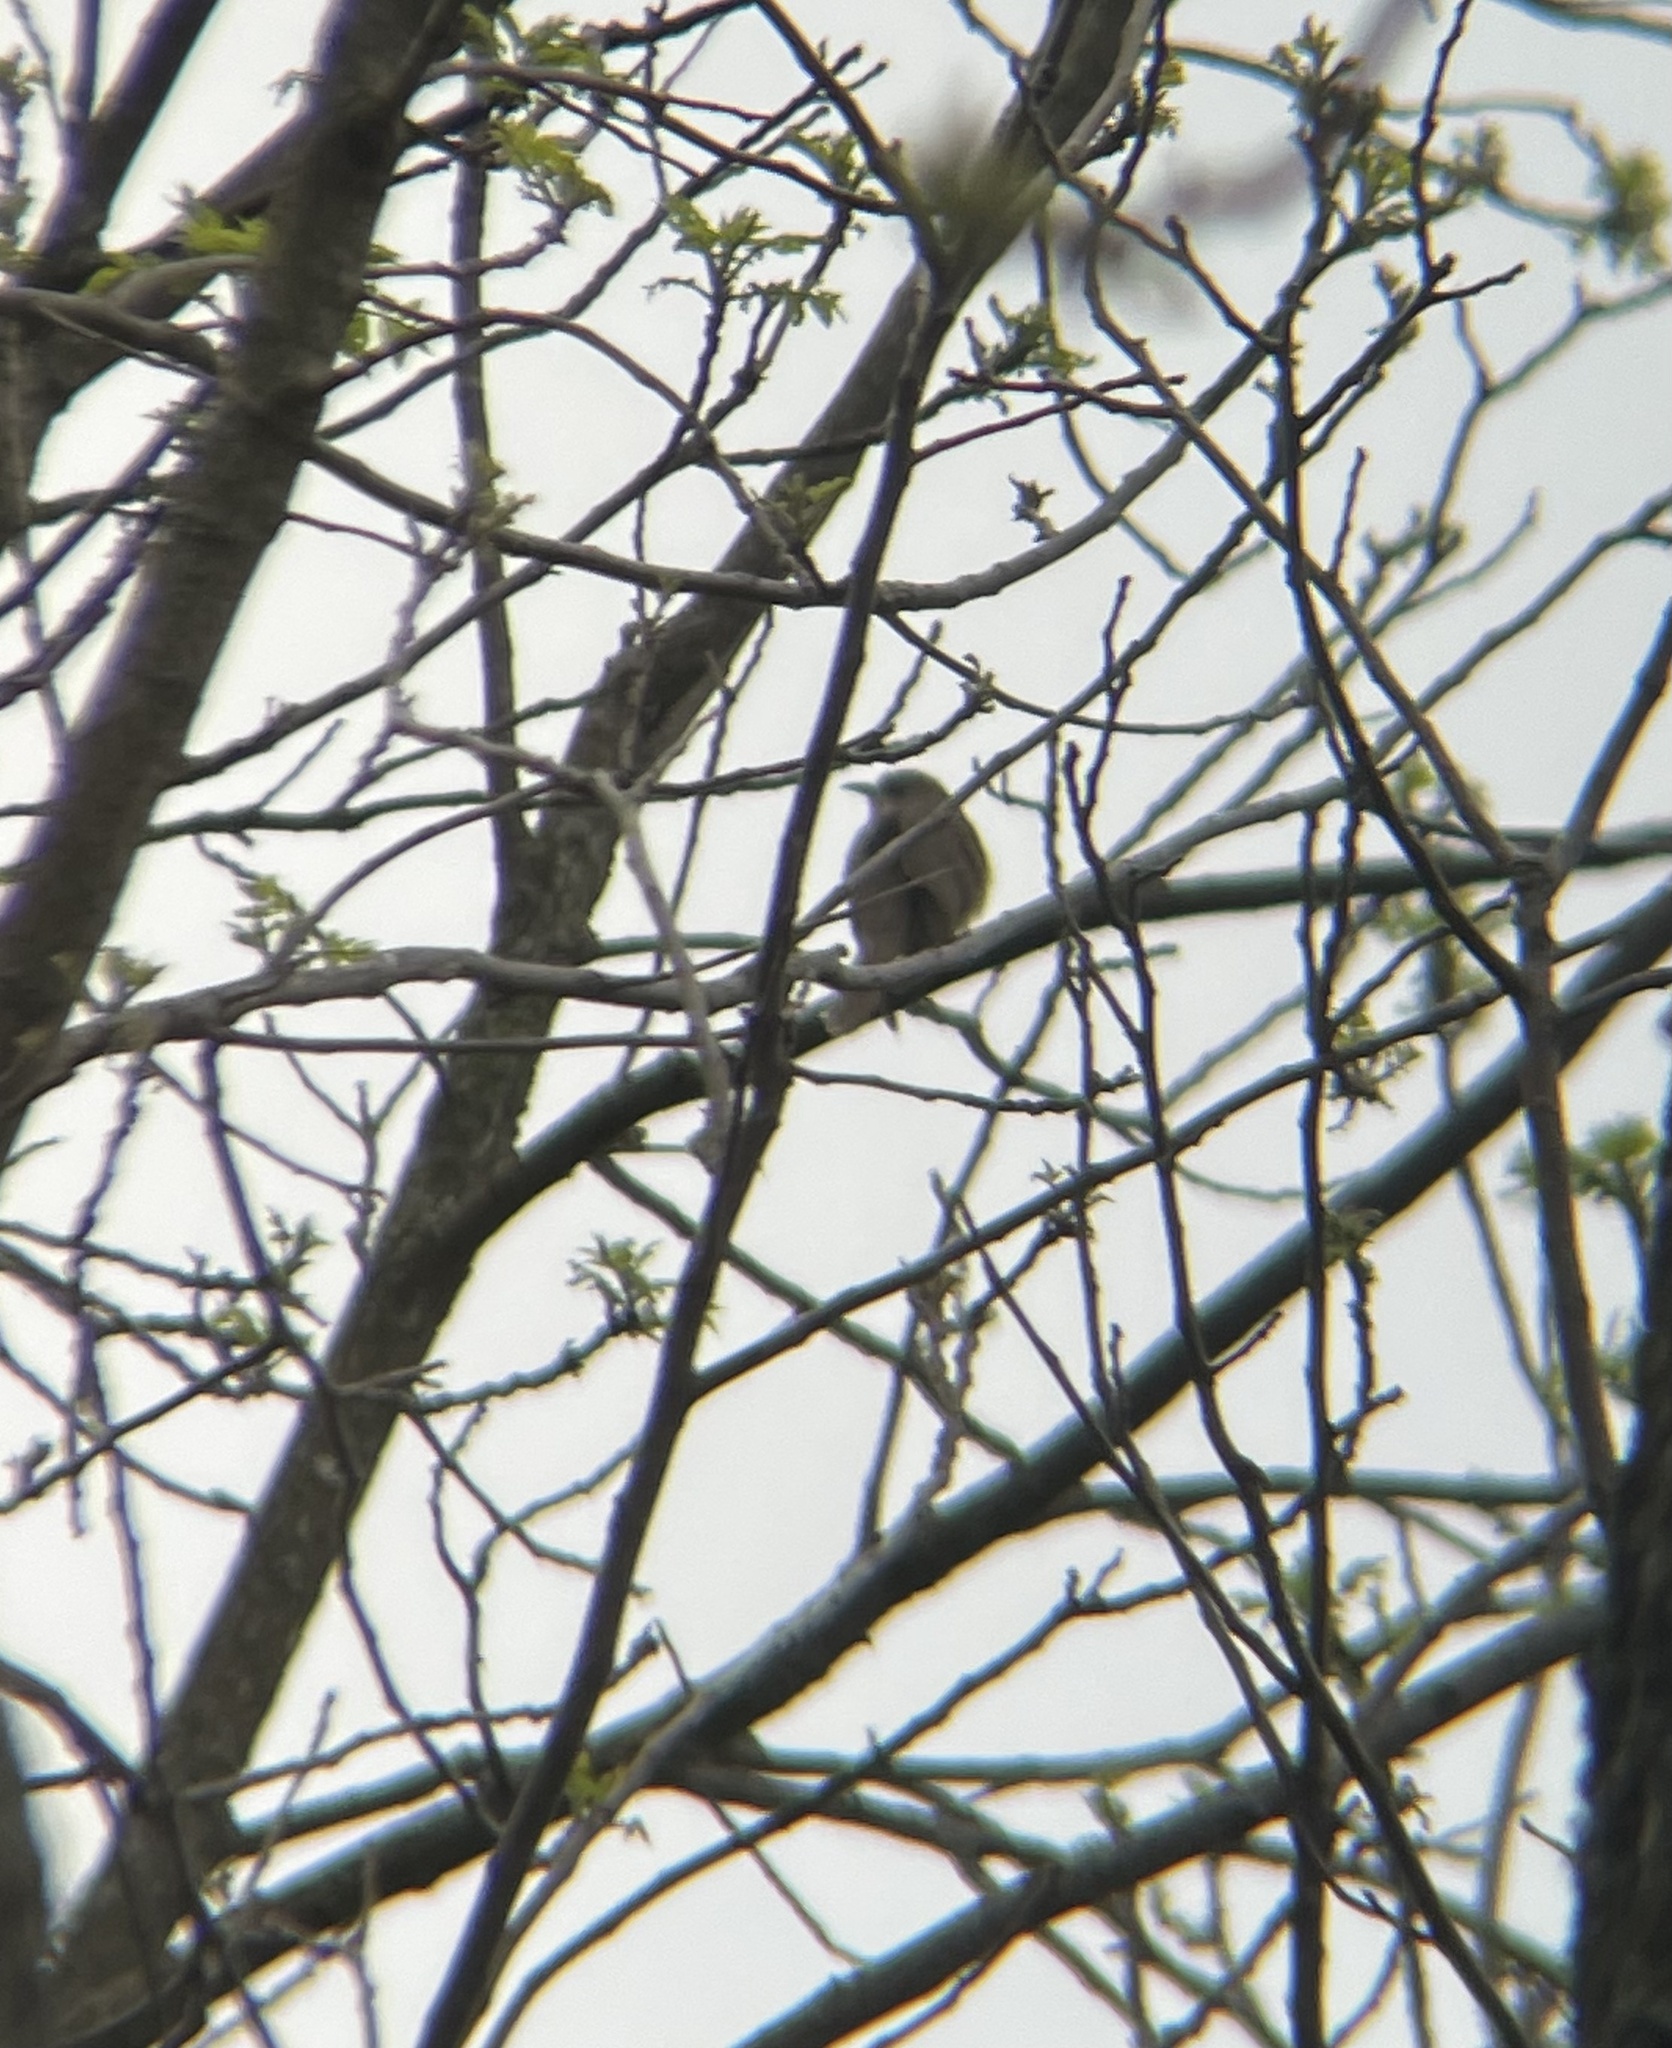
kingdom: Animalia
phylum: Chordata
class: Aves
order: Cuculiformes
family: Cuculidae
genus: Coccyzus
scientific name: Coccyzus erythropthalmus
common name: Black-billed cuckoo
